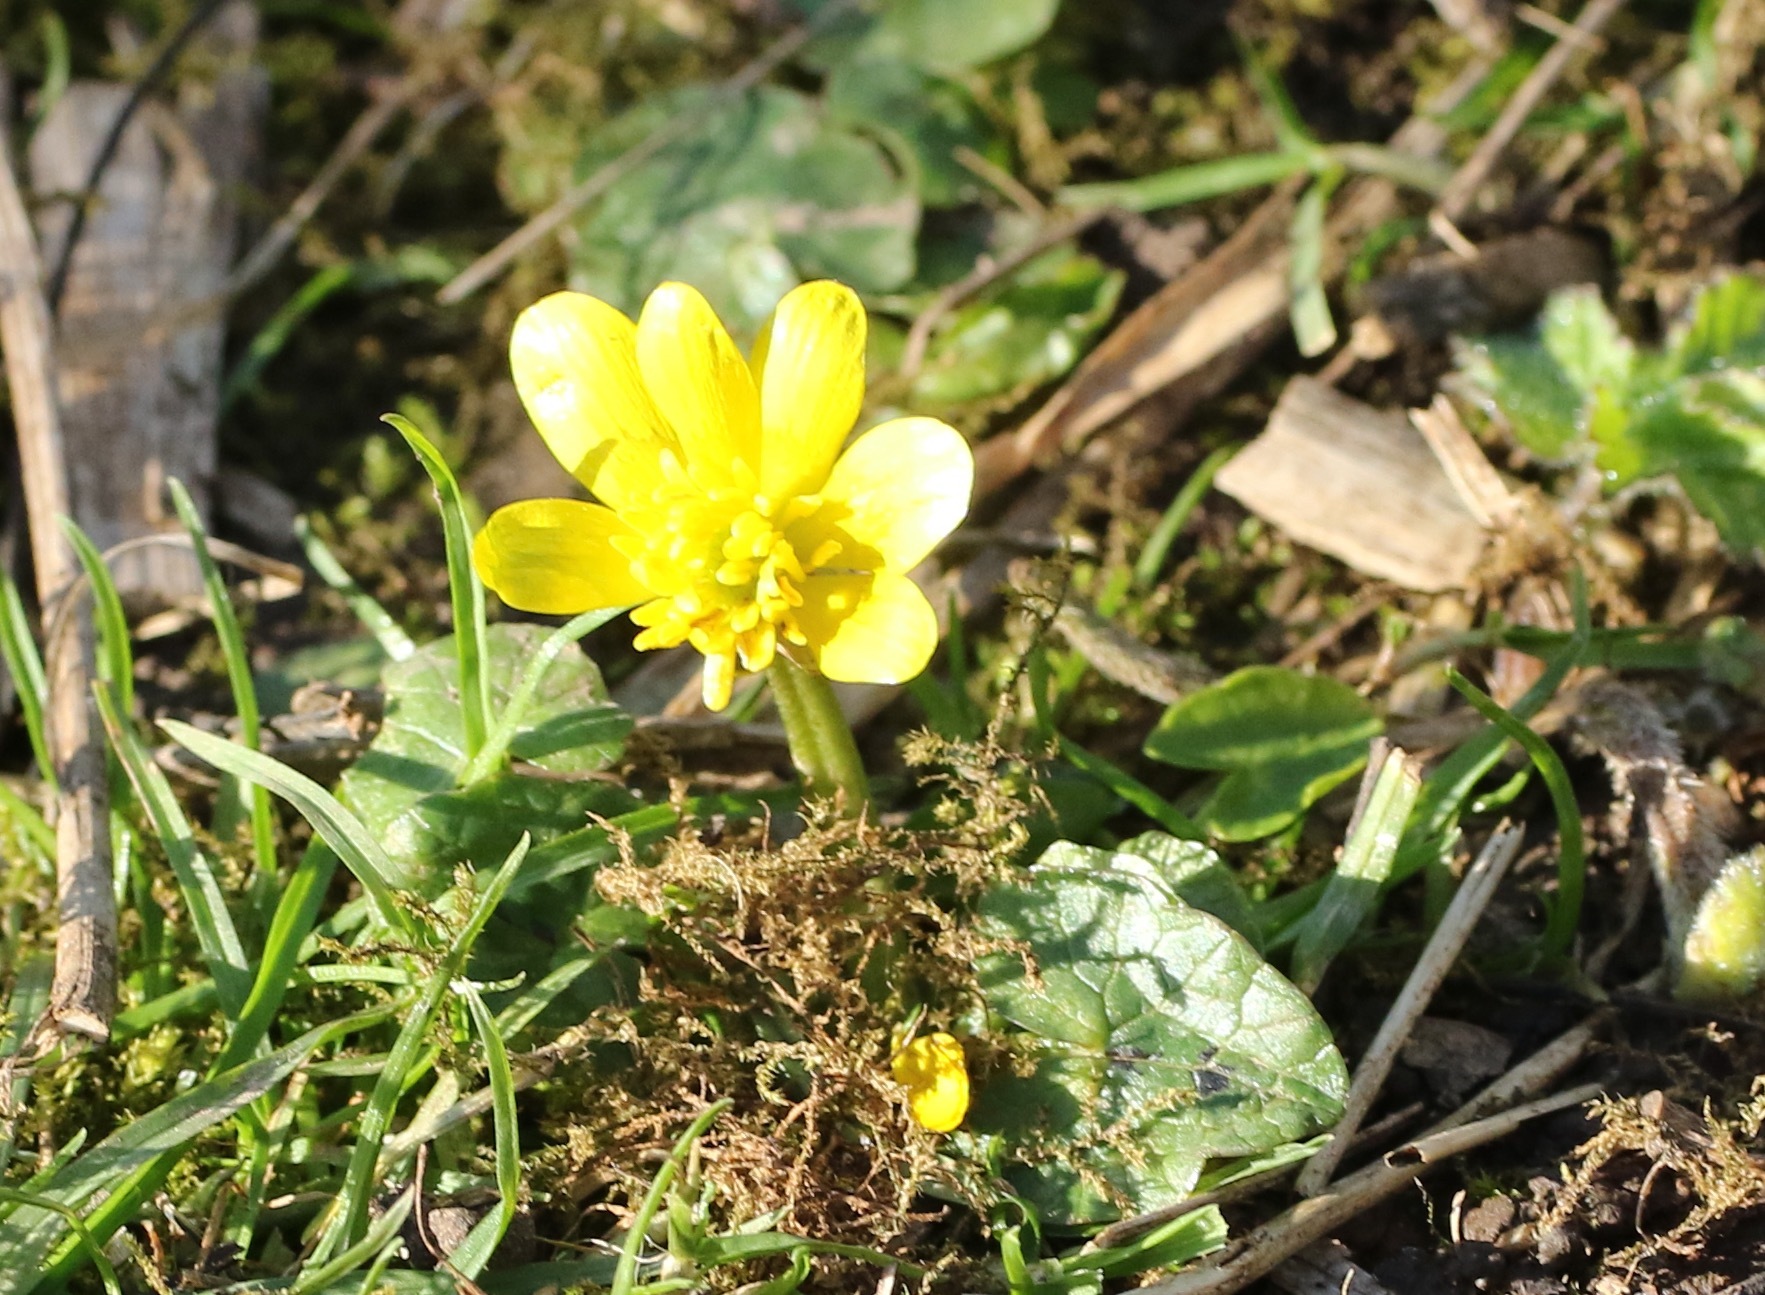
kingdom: Plantae
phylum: Tracheophyta
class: Magnoliopsida
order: Ranunculales
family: Ranunculaceae
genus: Ficaria
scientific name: Ficaria verna
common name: Lesser celandine
